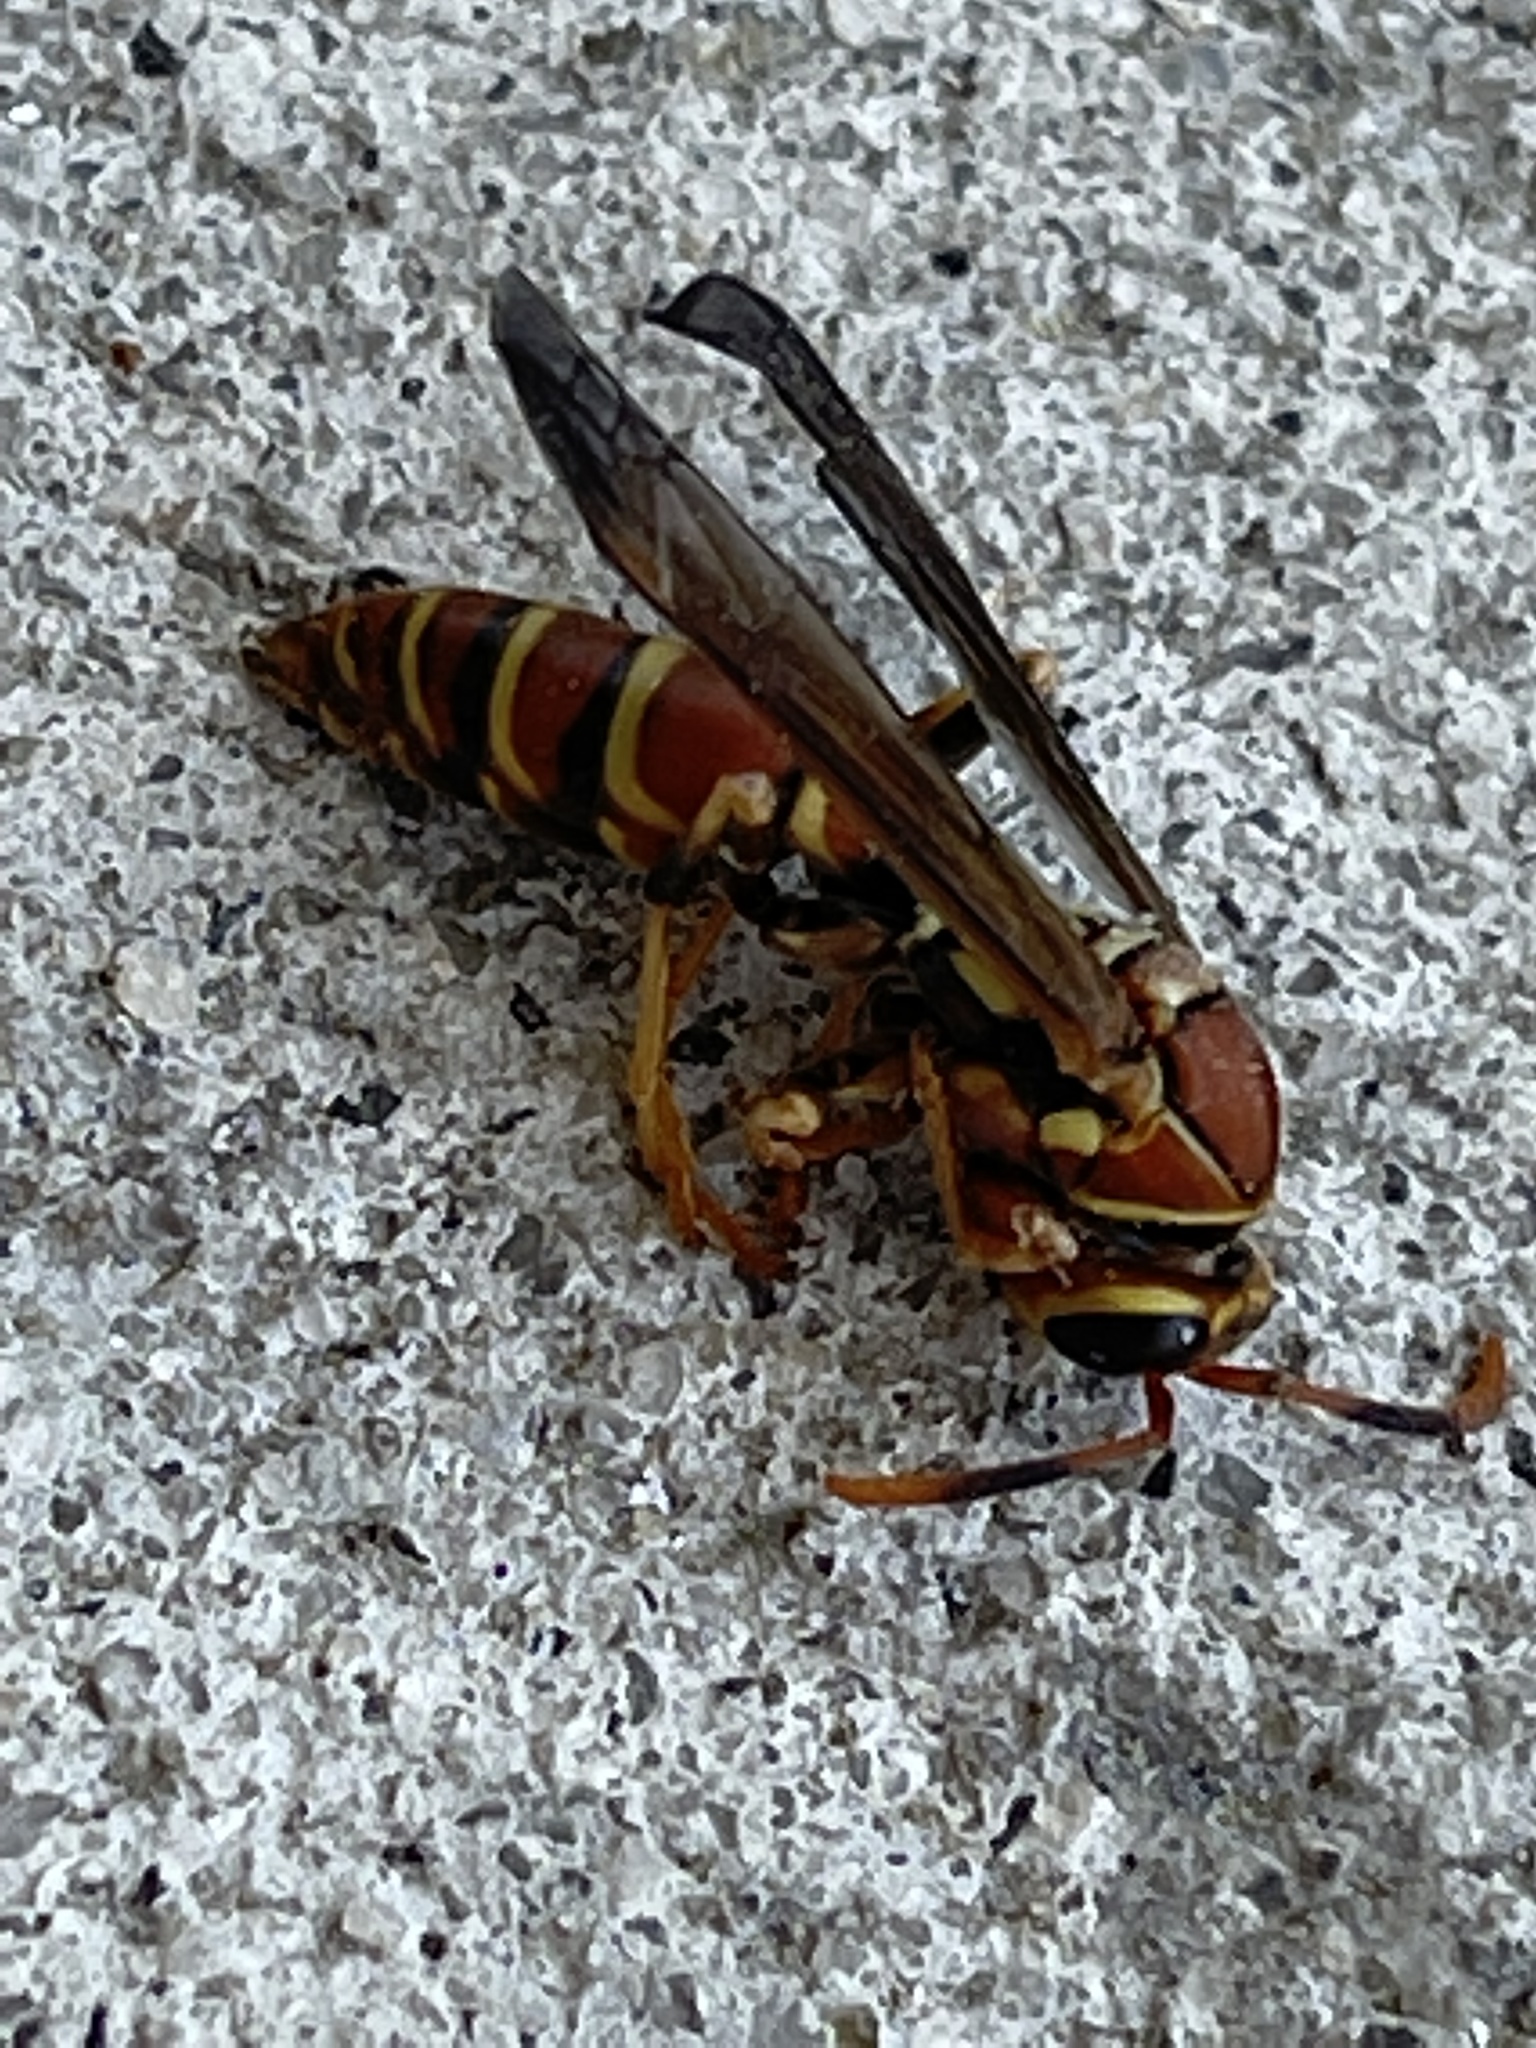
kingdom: Animalia
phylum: Arthropoda
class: Insecta
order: Hymenoptera
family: Eumenidae
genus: Polistes
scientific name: Polistes exclamans
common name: Paper wasp
